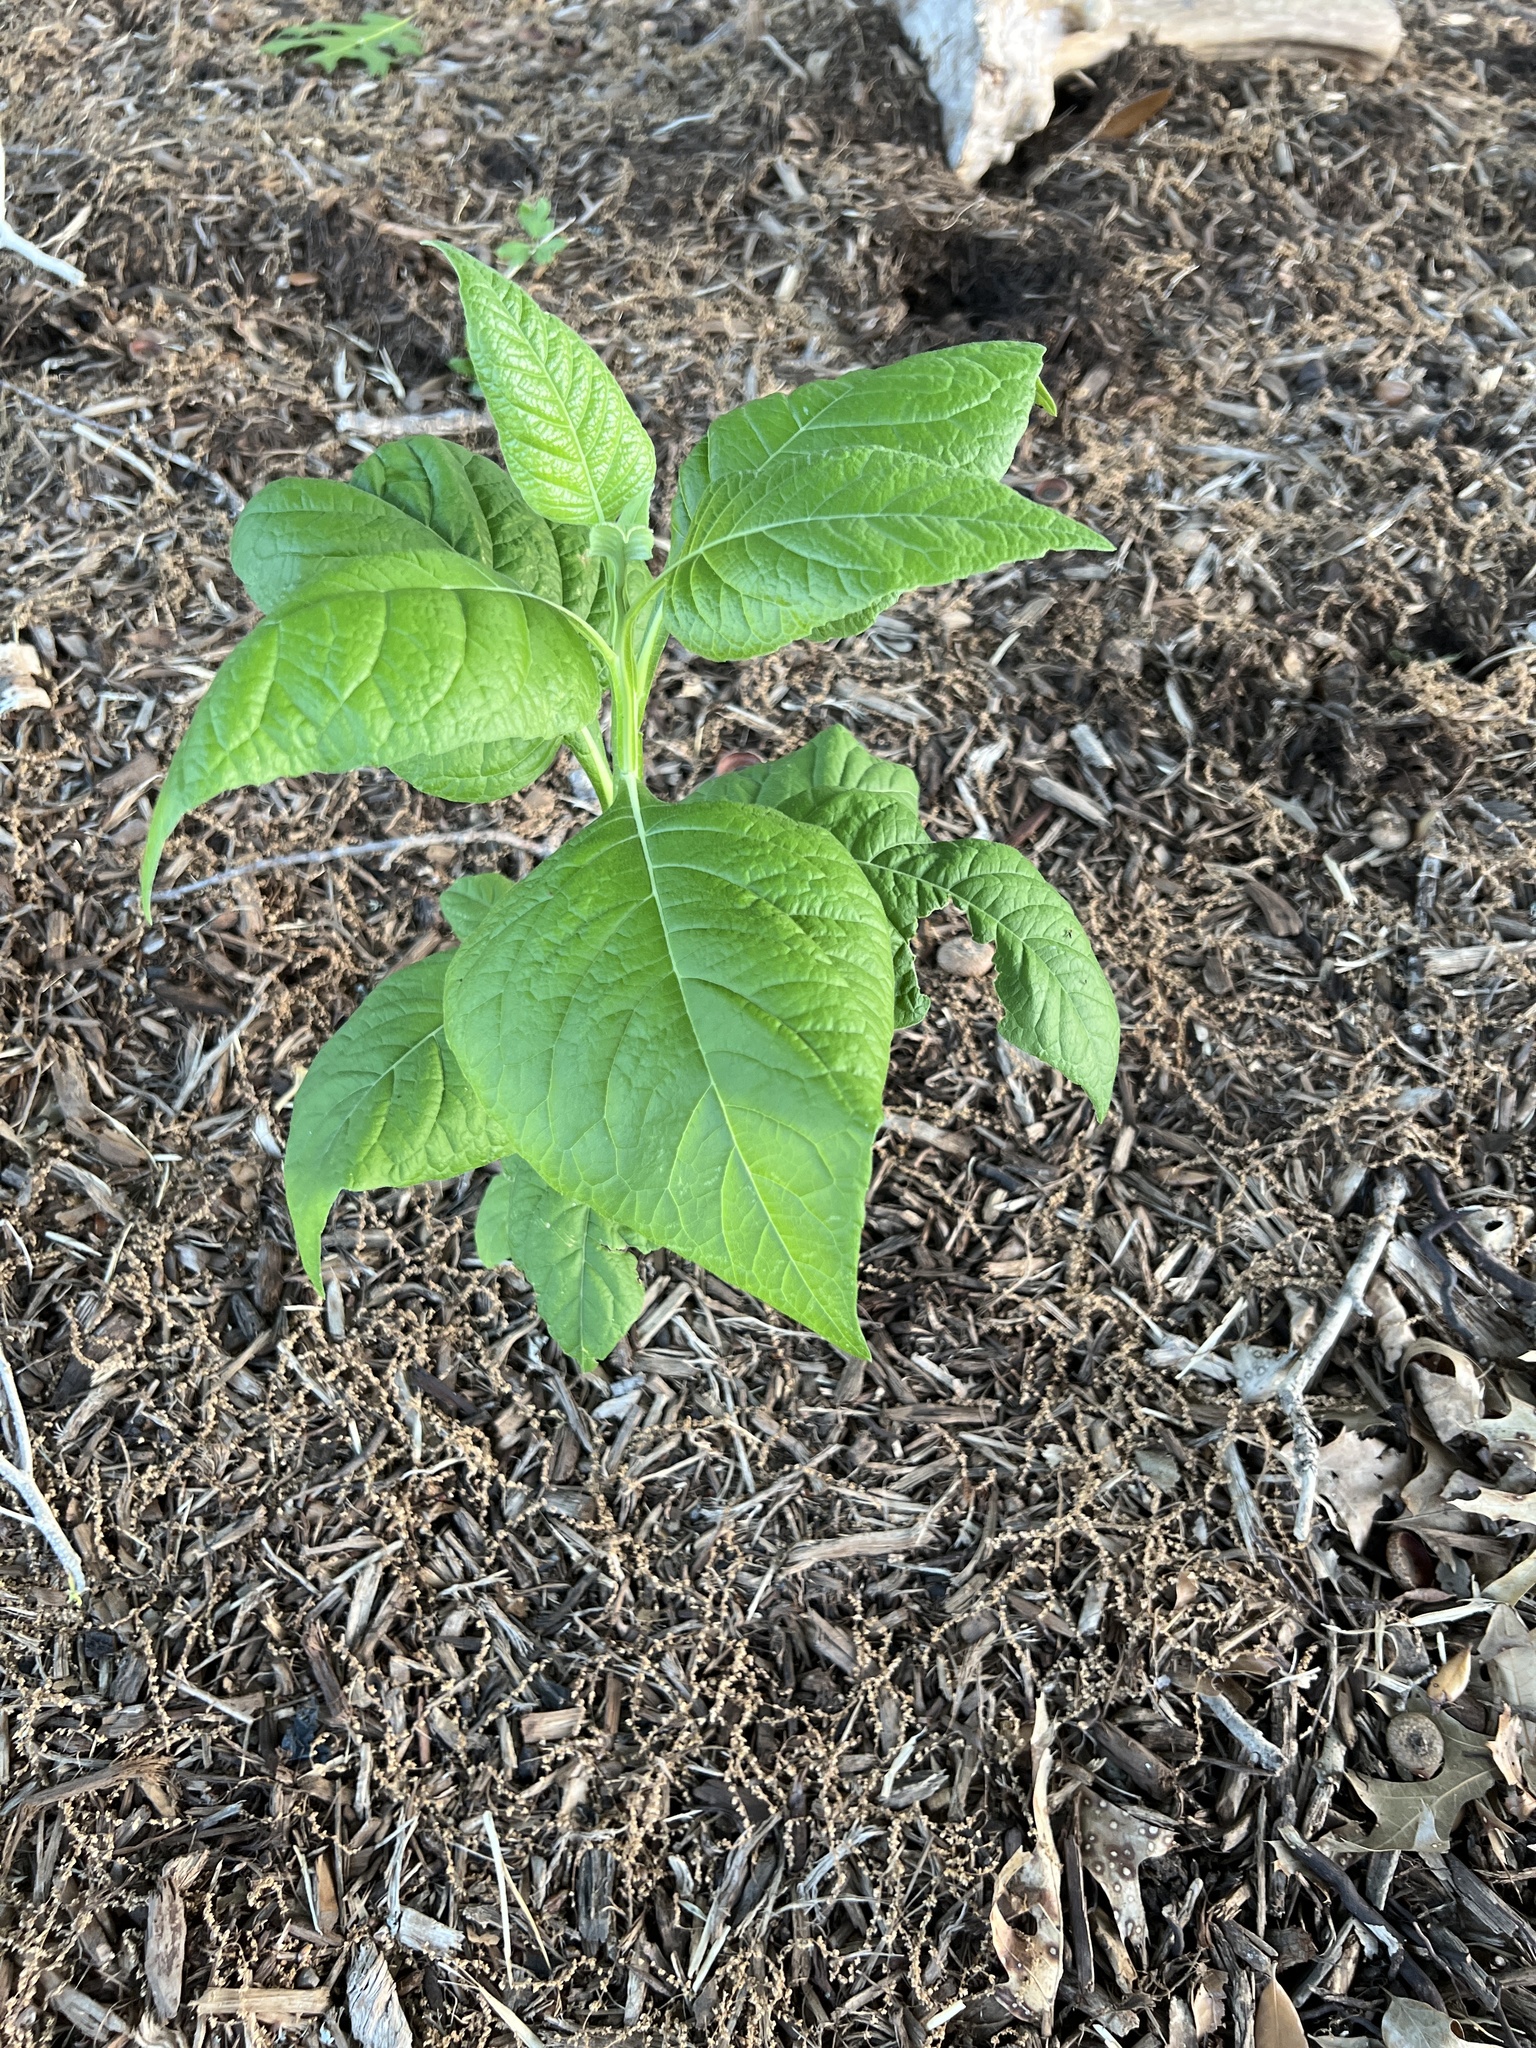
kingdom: Plantae
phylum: Tracheophyta
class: Magnoliopsida
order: Asterales
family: Asteraceae
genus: Verbesina
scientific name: Verbesina virginica
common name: Frostweed
